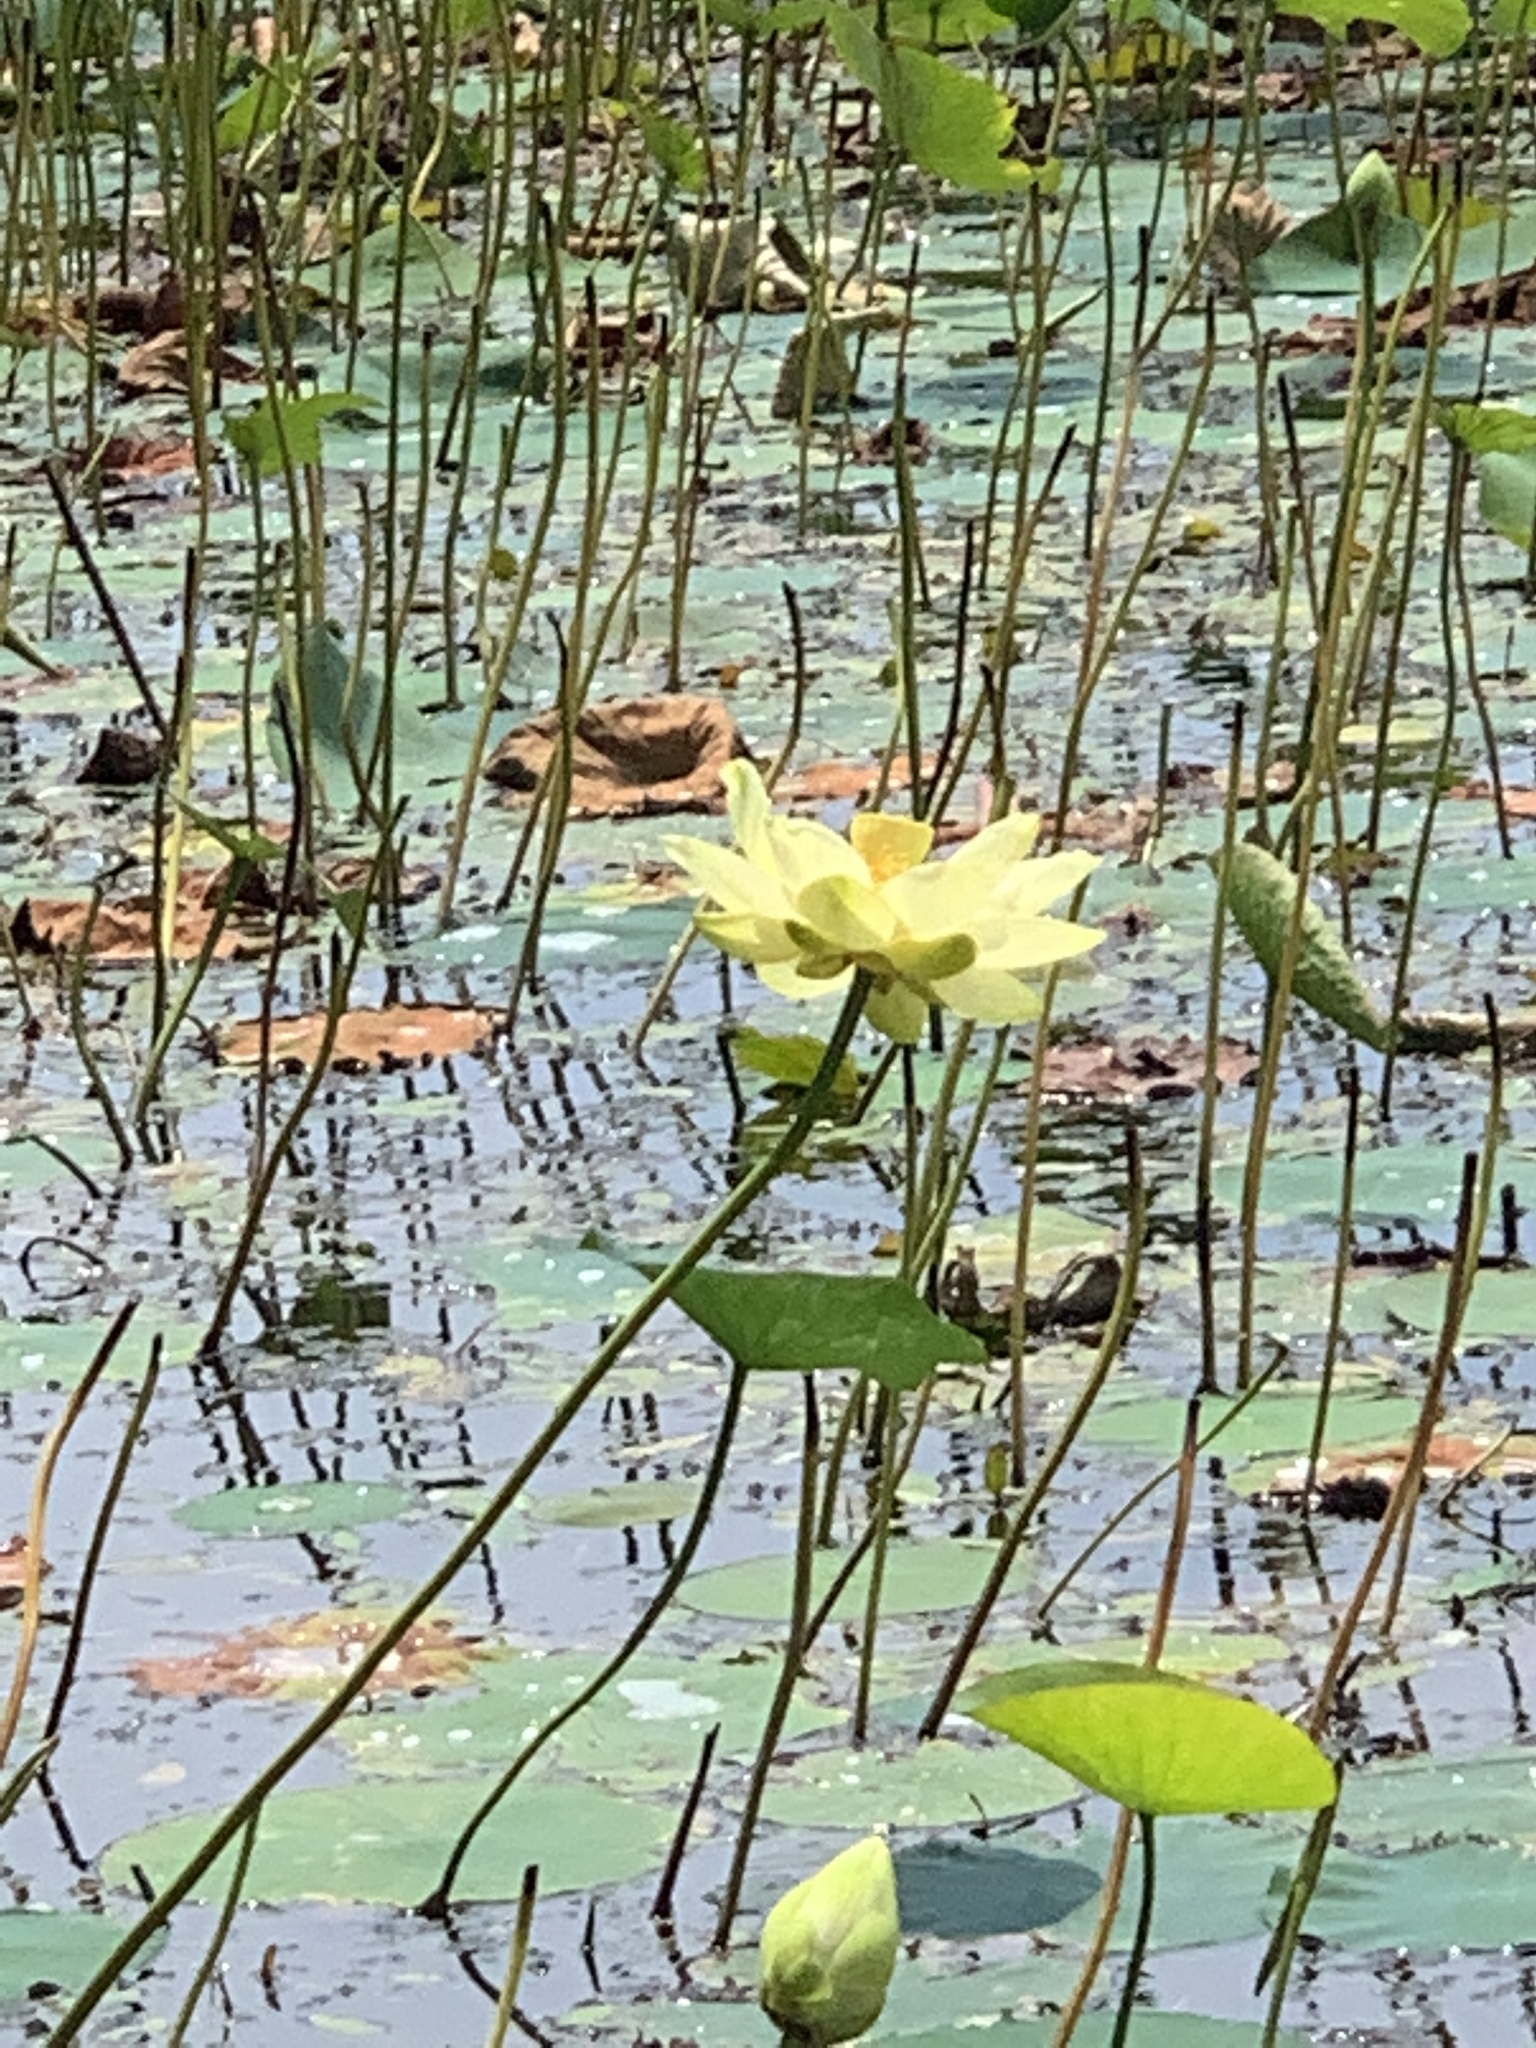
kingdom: Plantae
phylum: Tracheophyta
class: Magnoliopsida
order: Proteales
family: Nelumbonaceae
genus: Nelumbo
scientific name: Nelumbo lutea
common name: American lotus
